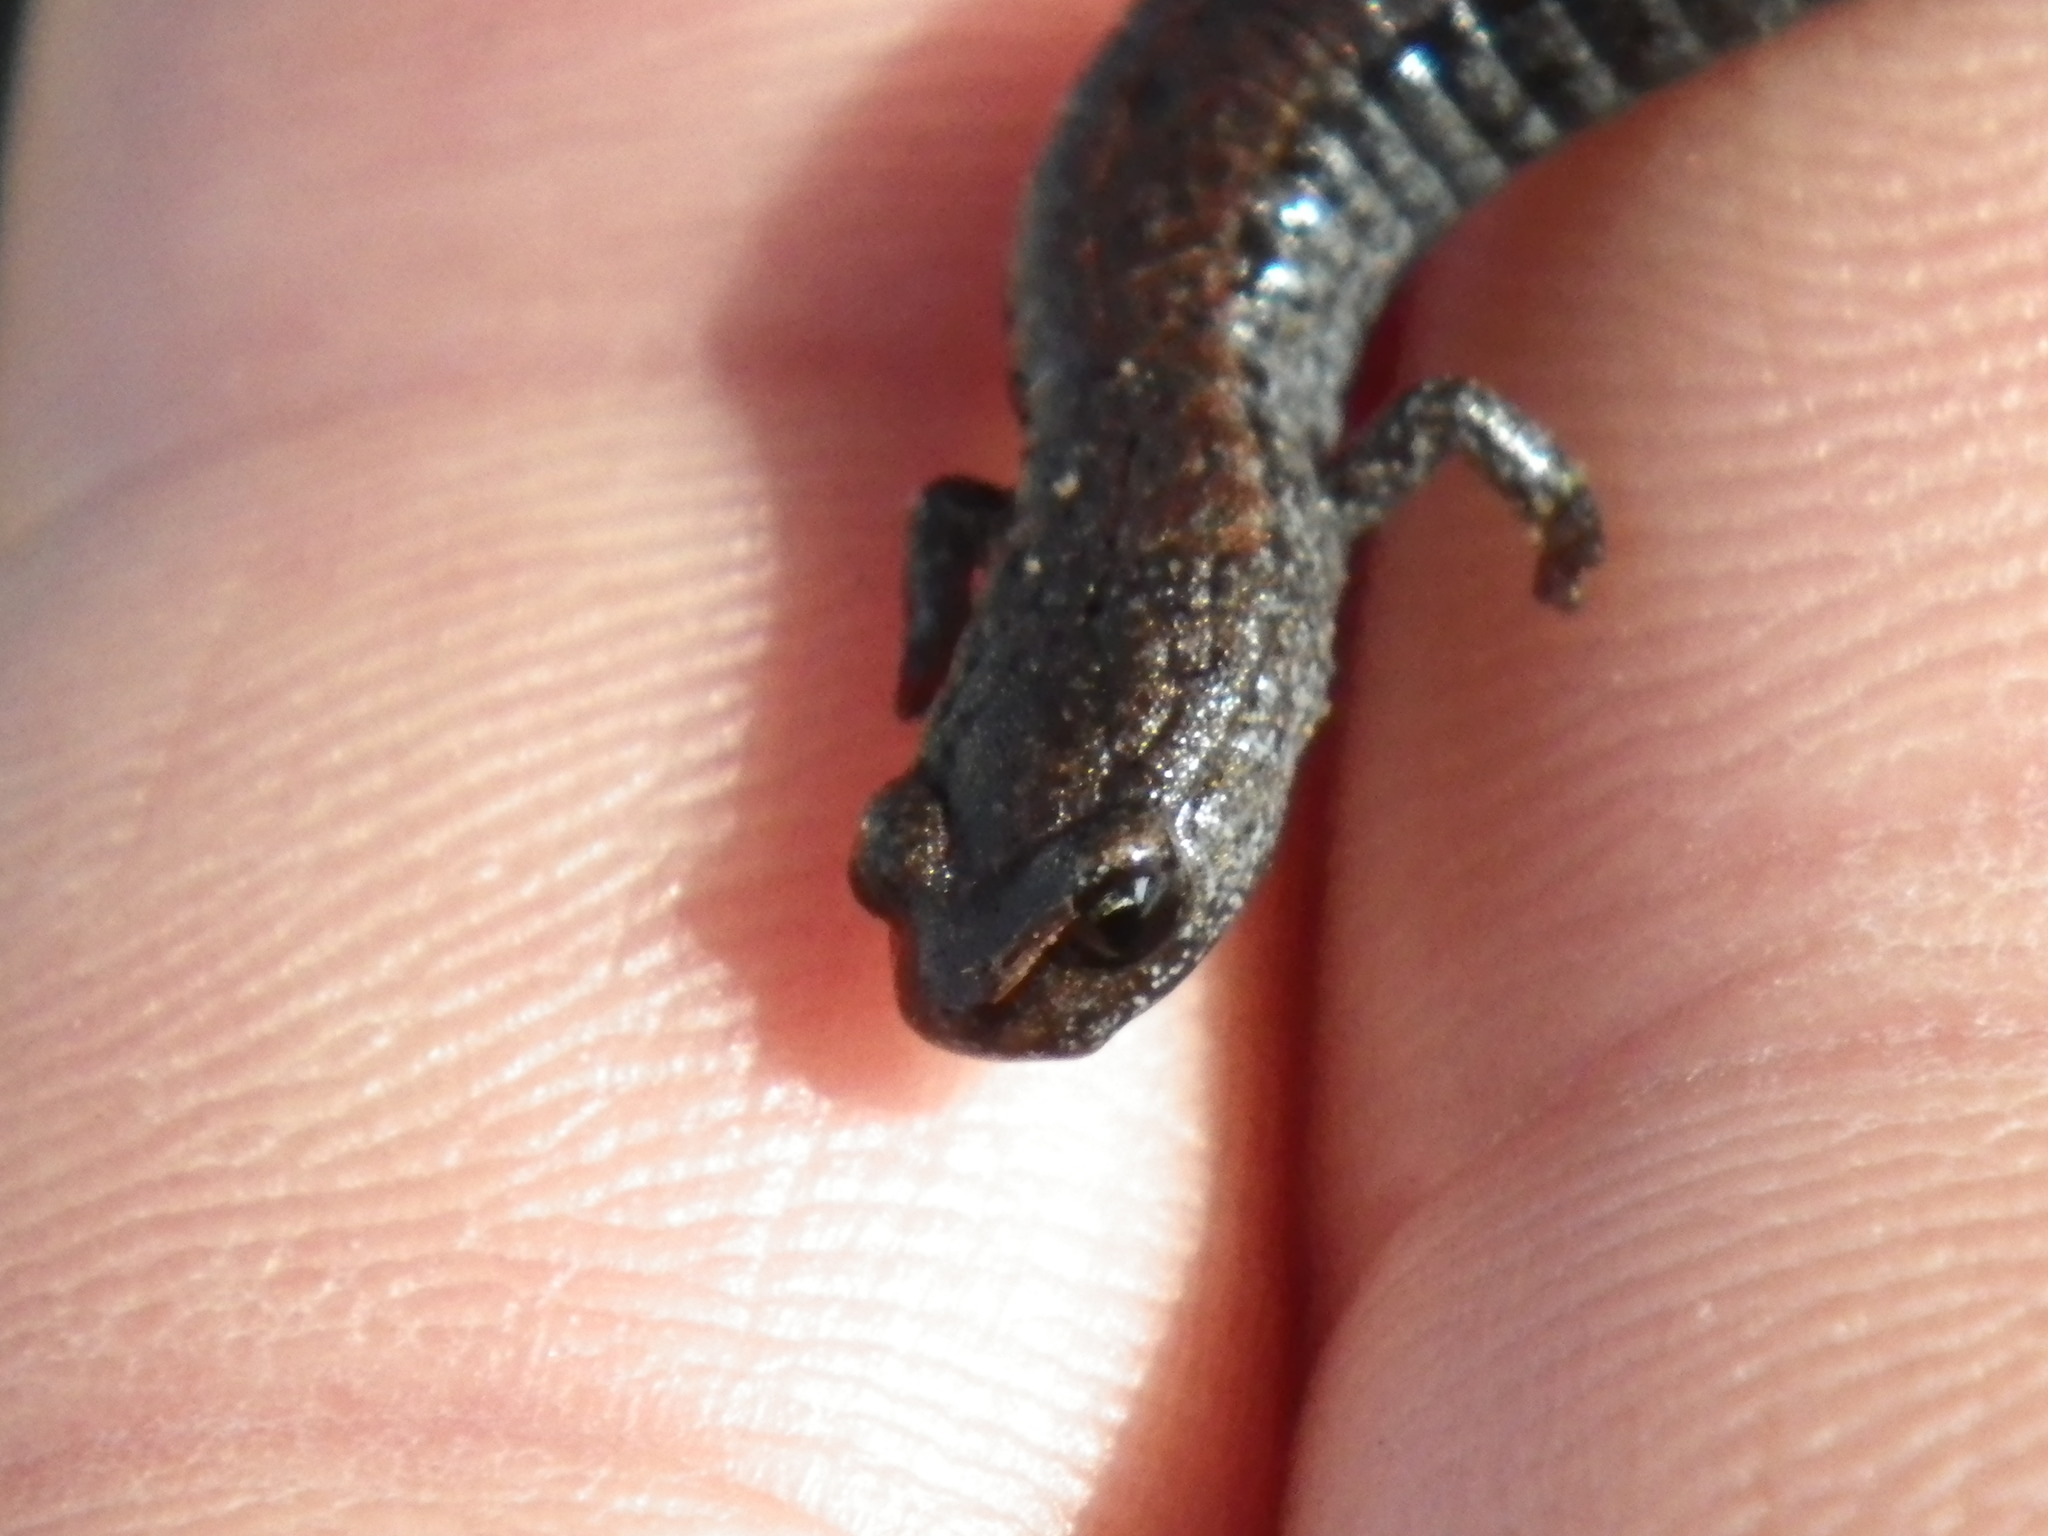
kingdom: Animalia
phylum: Chordata
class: Amphibia
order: Caudata
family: Plethodontidae
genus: Batrachoseps
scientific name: Batrachoseps attenuatus
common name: California slender salamander
